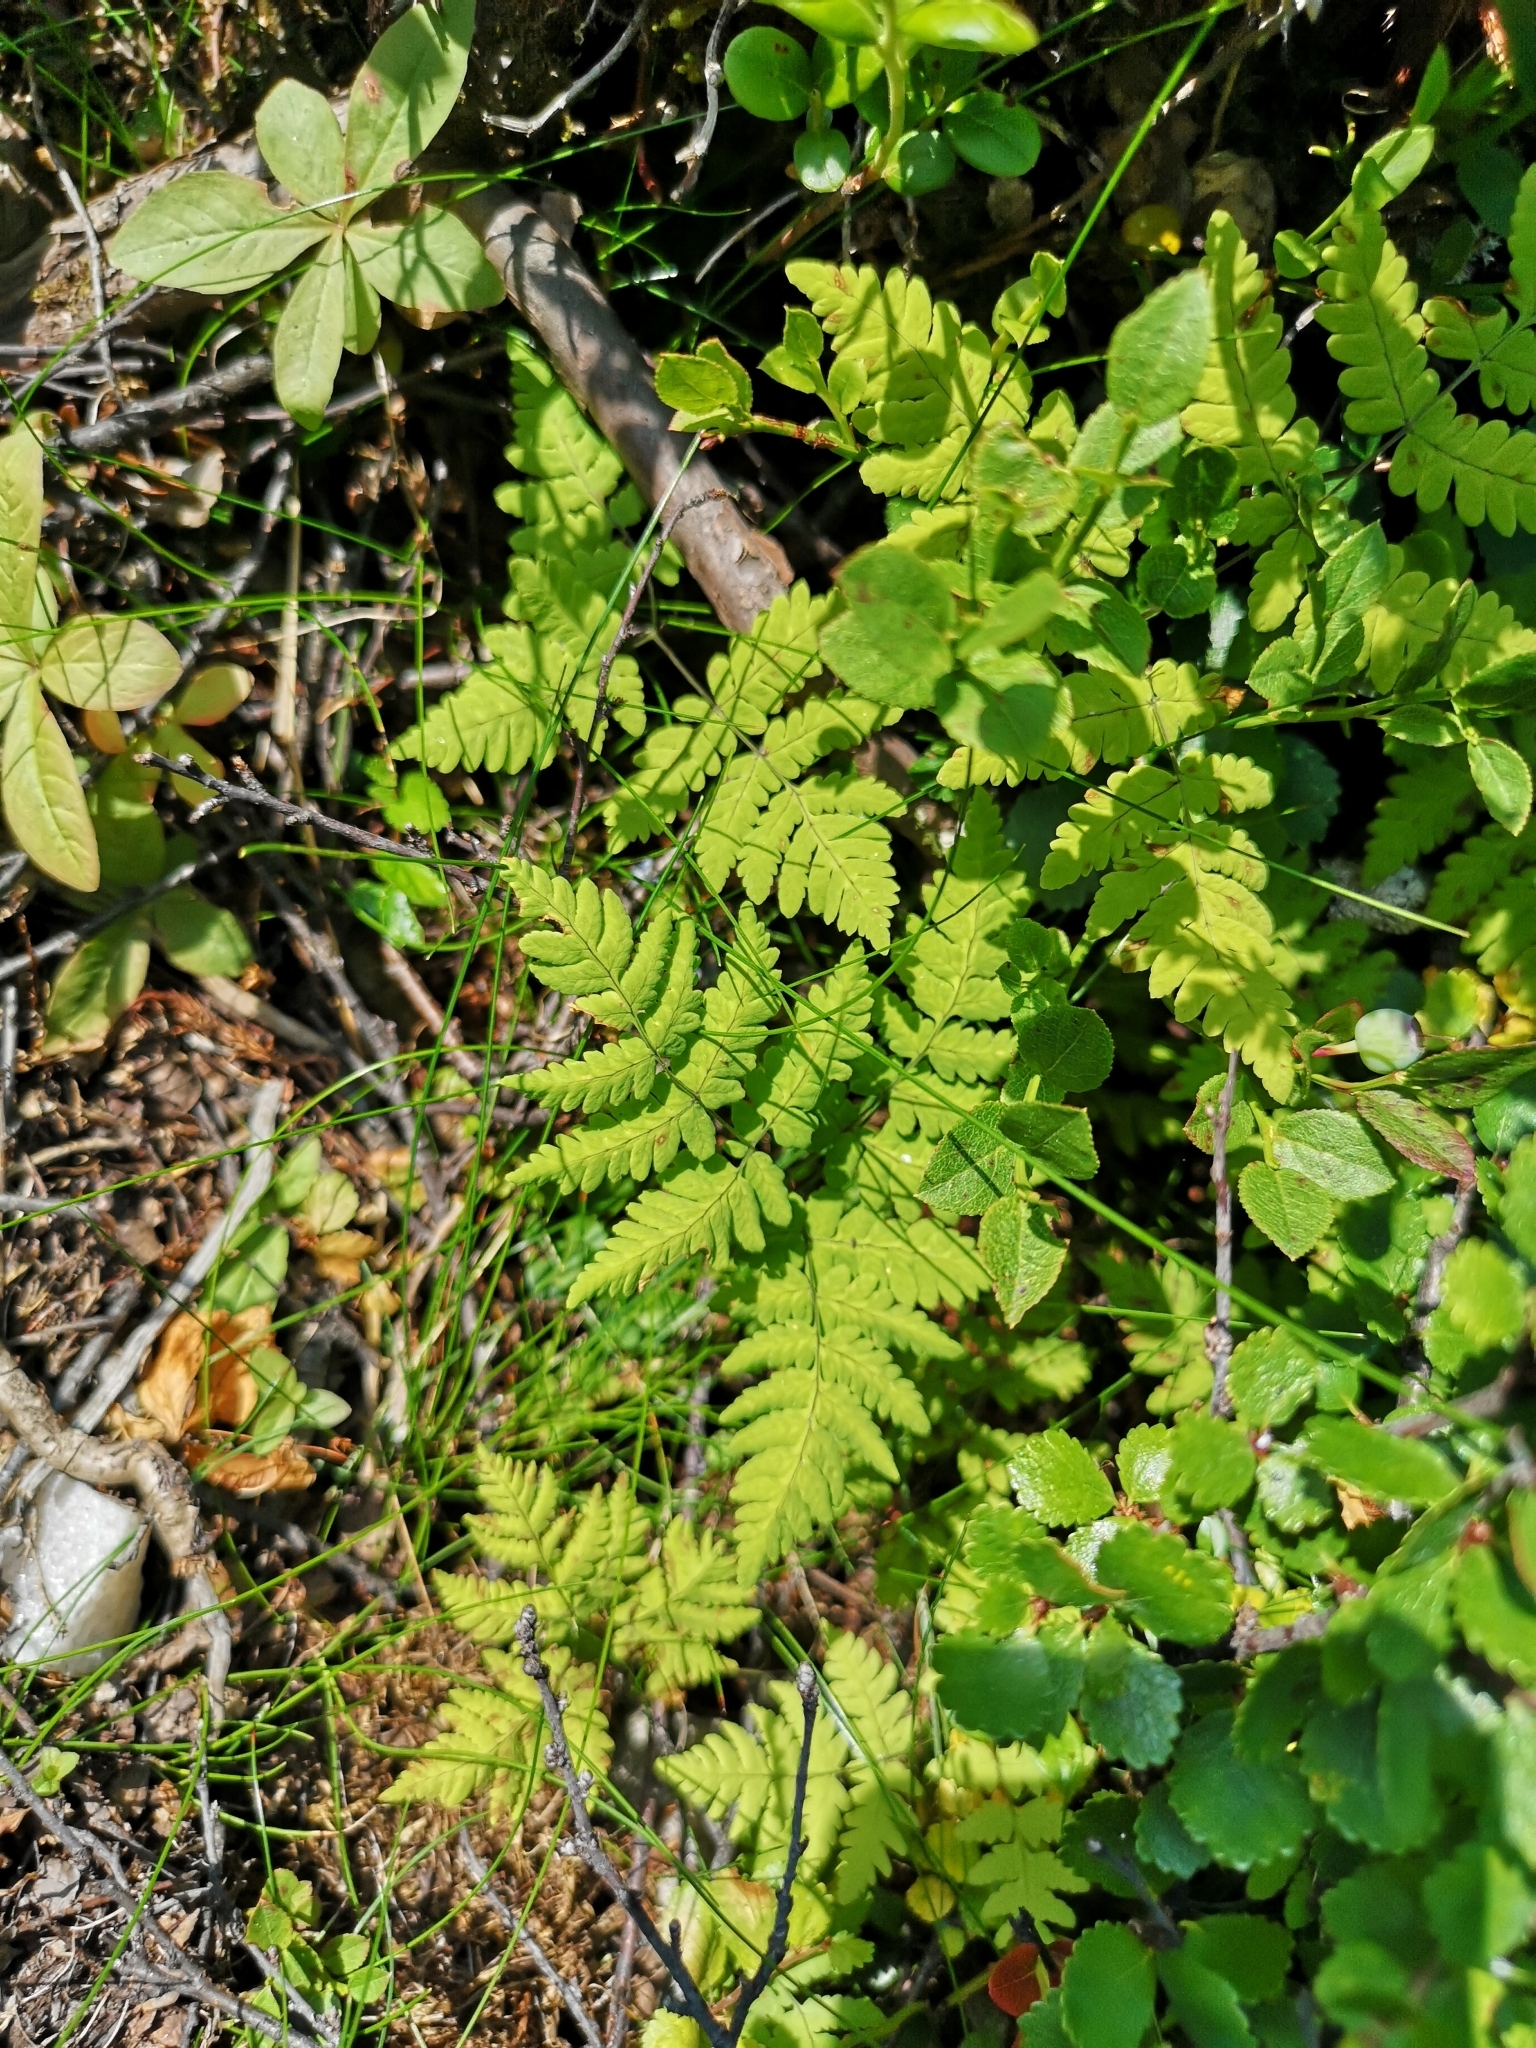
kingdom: Plantae
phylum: Tracheophyta
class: Polypodiopsida
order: Polypodiales
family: Cystopteridaceae
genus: Gymnocarpium
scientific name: Gymnocarpium dryopteris
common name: Oak fern
